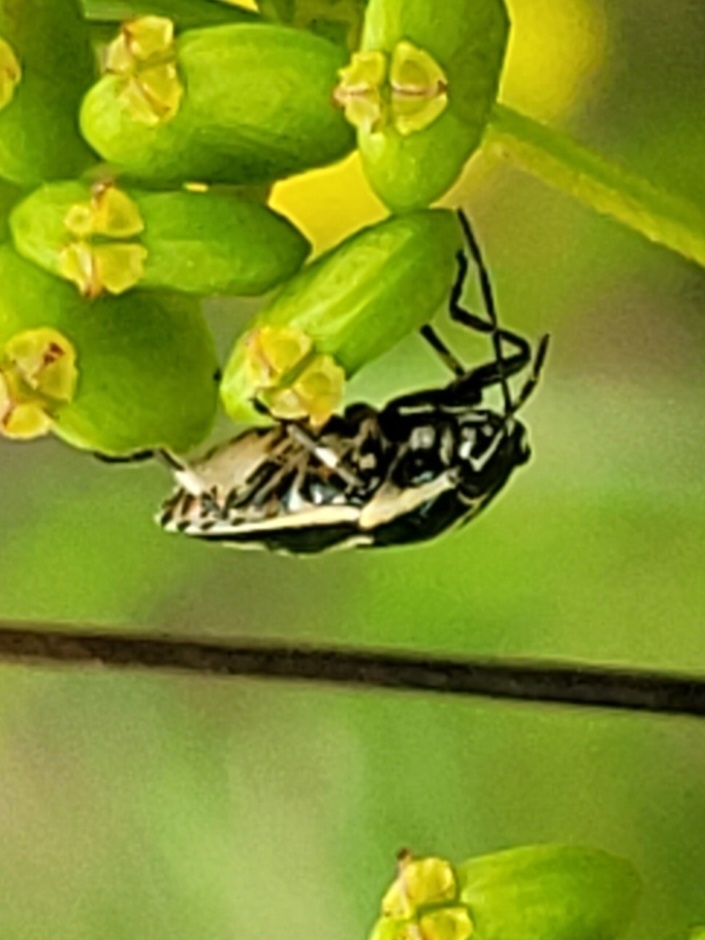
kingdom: Animalia
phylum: Arthropoda
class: Insecta
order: Hemiptera
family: Pentatomidae
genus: Eurydema
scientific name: Eurydema oleracea
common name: Cabbage bug
